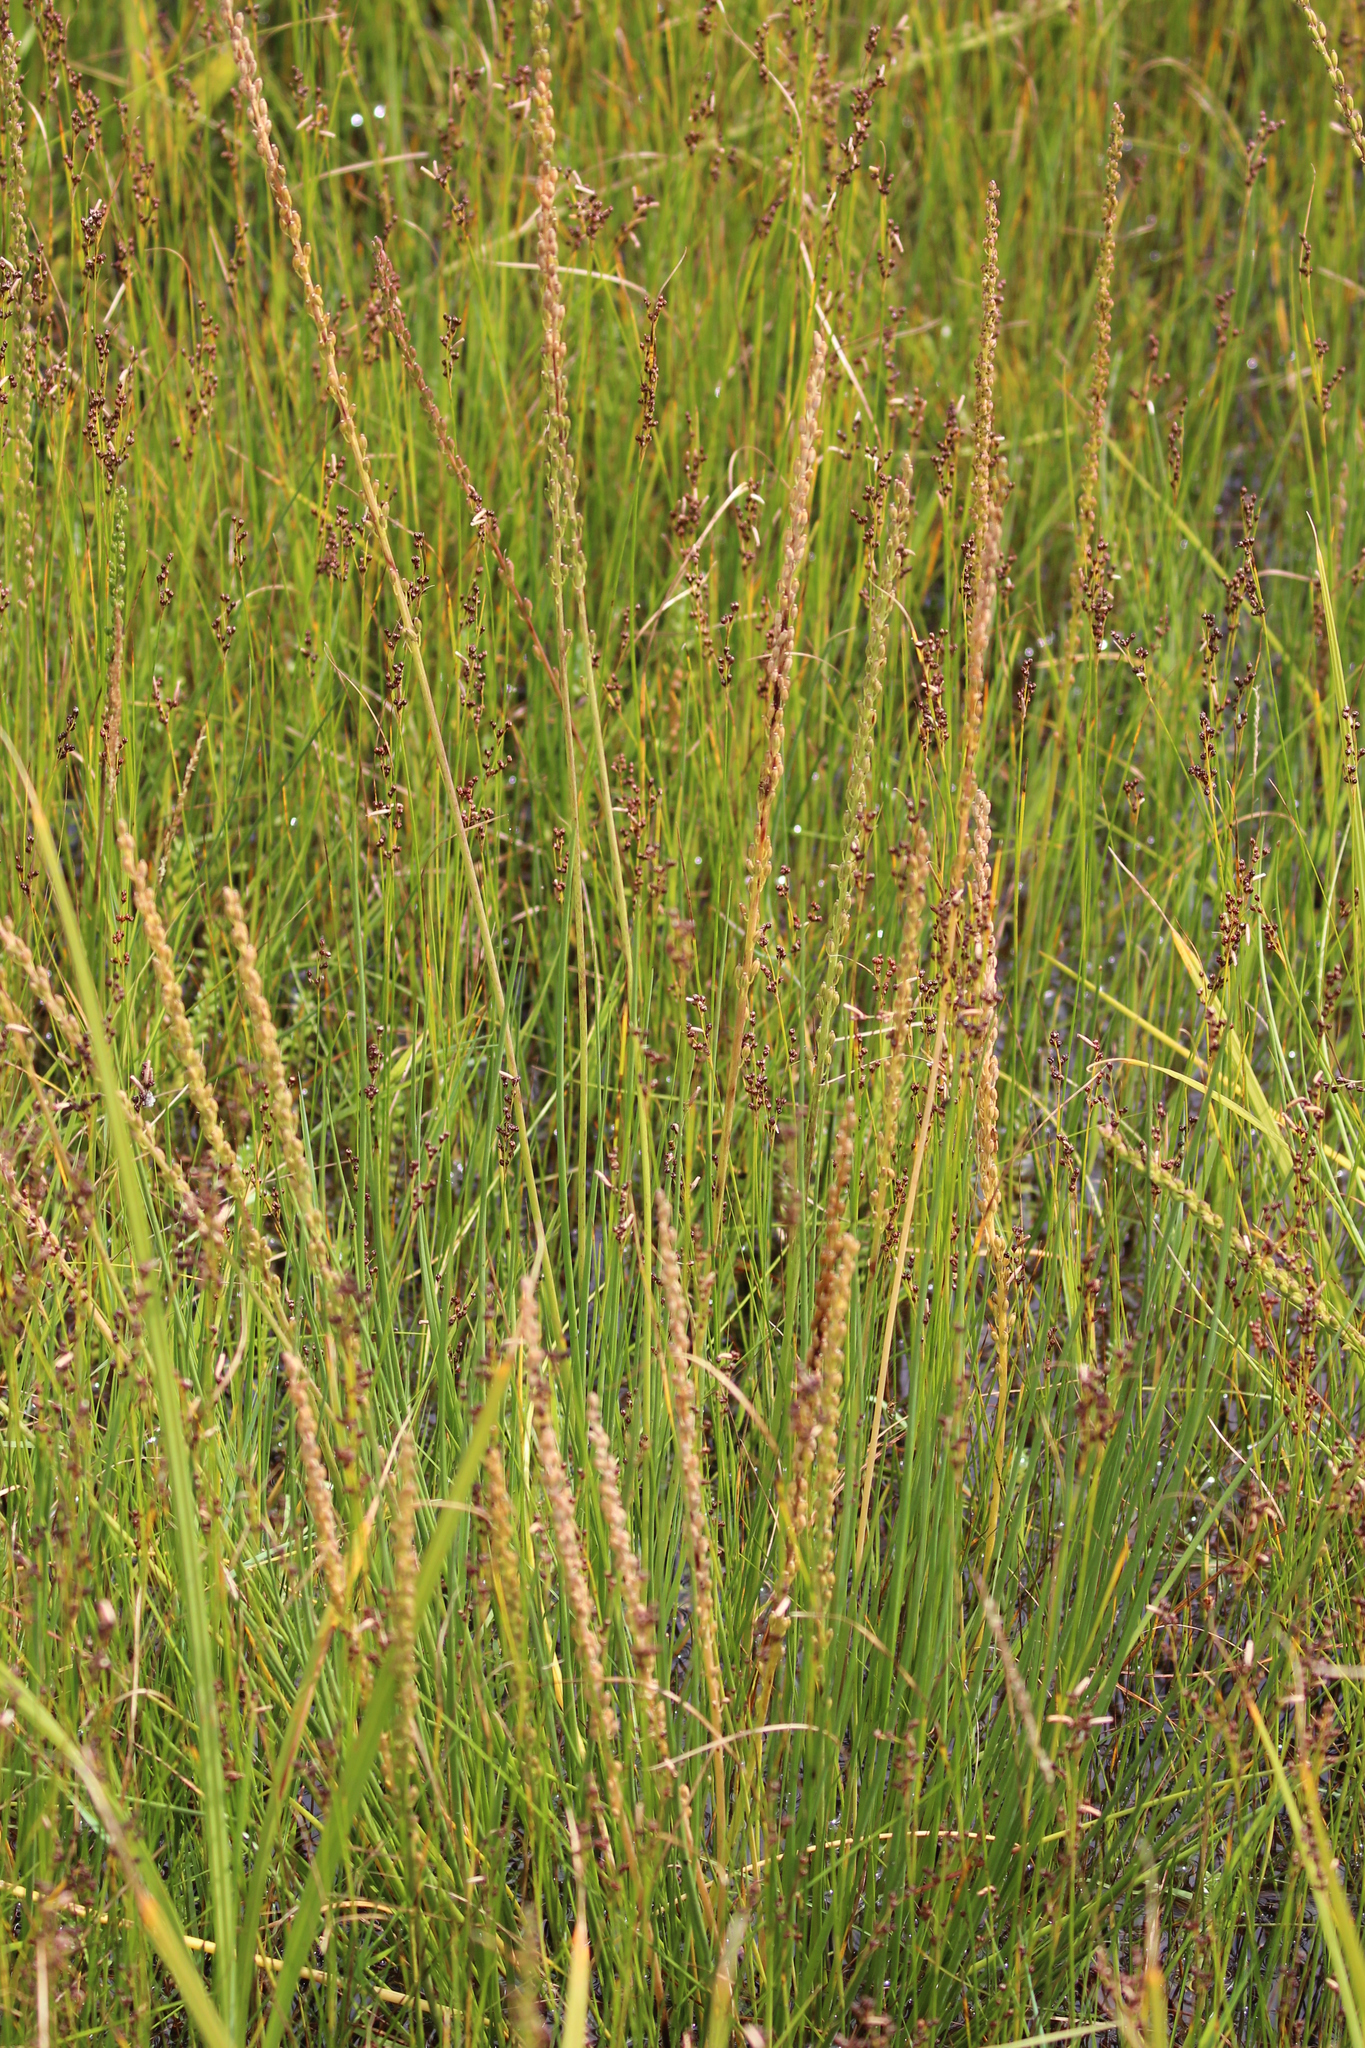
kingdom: Plantae
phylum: Tracheophyta
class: Liliopsida
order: Alismatales
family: Juncaginaceae
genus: Triglochin
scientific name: Triglochin maritima
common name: Sea arrowgrass
